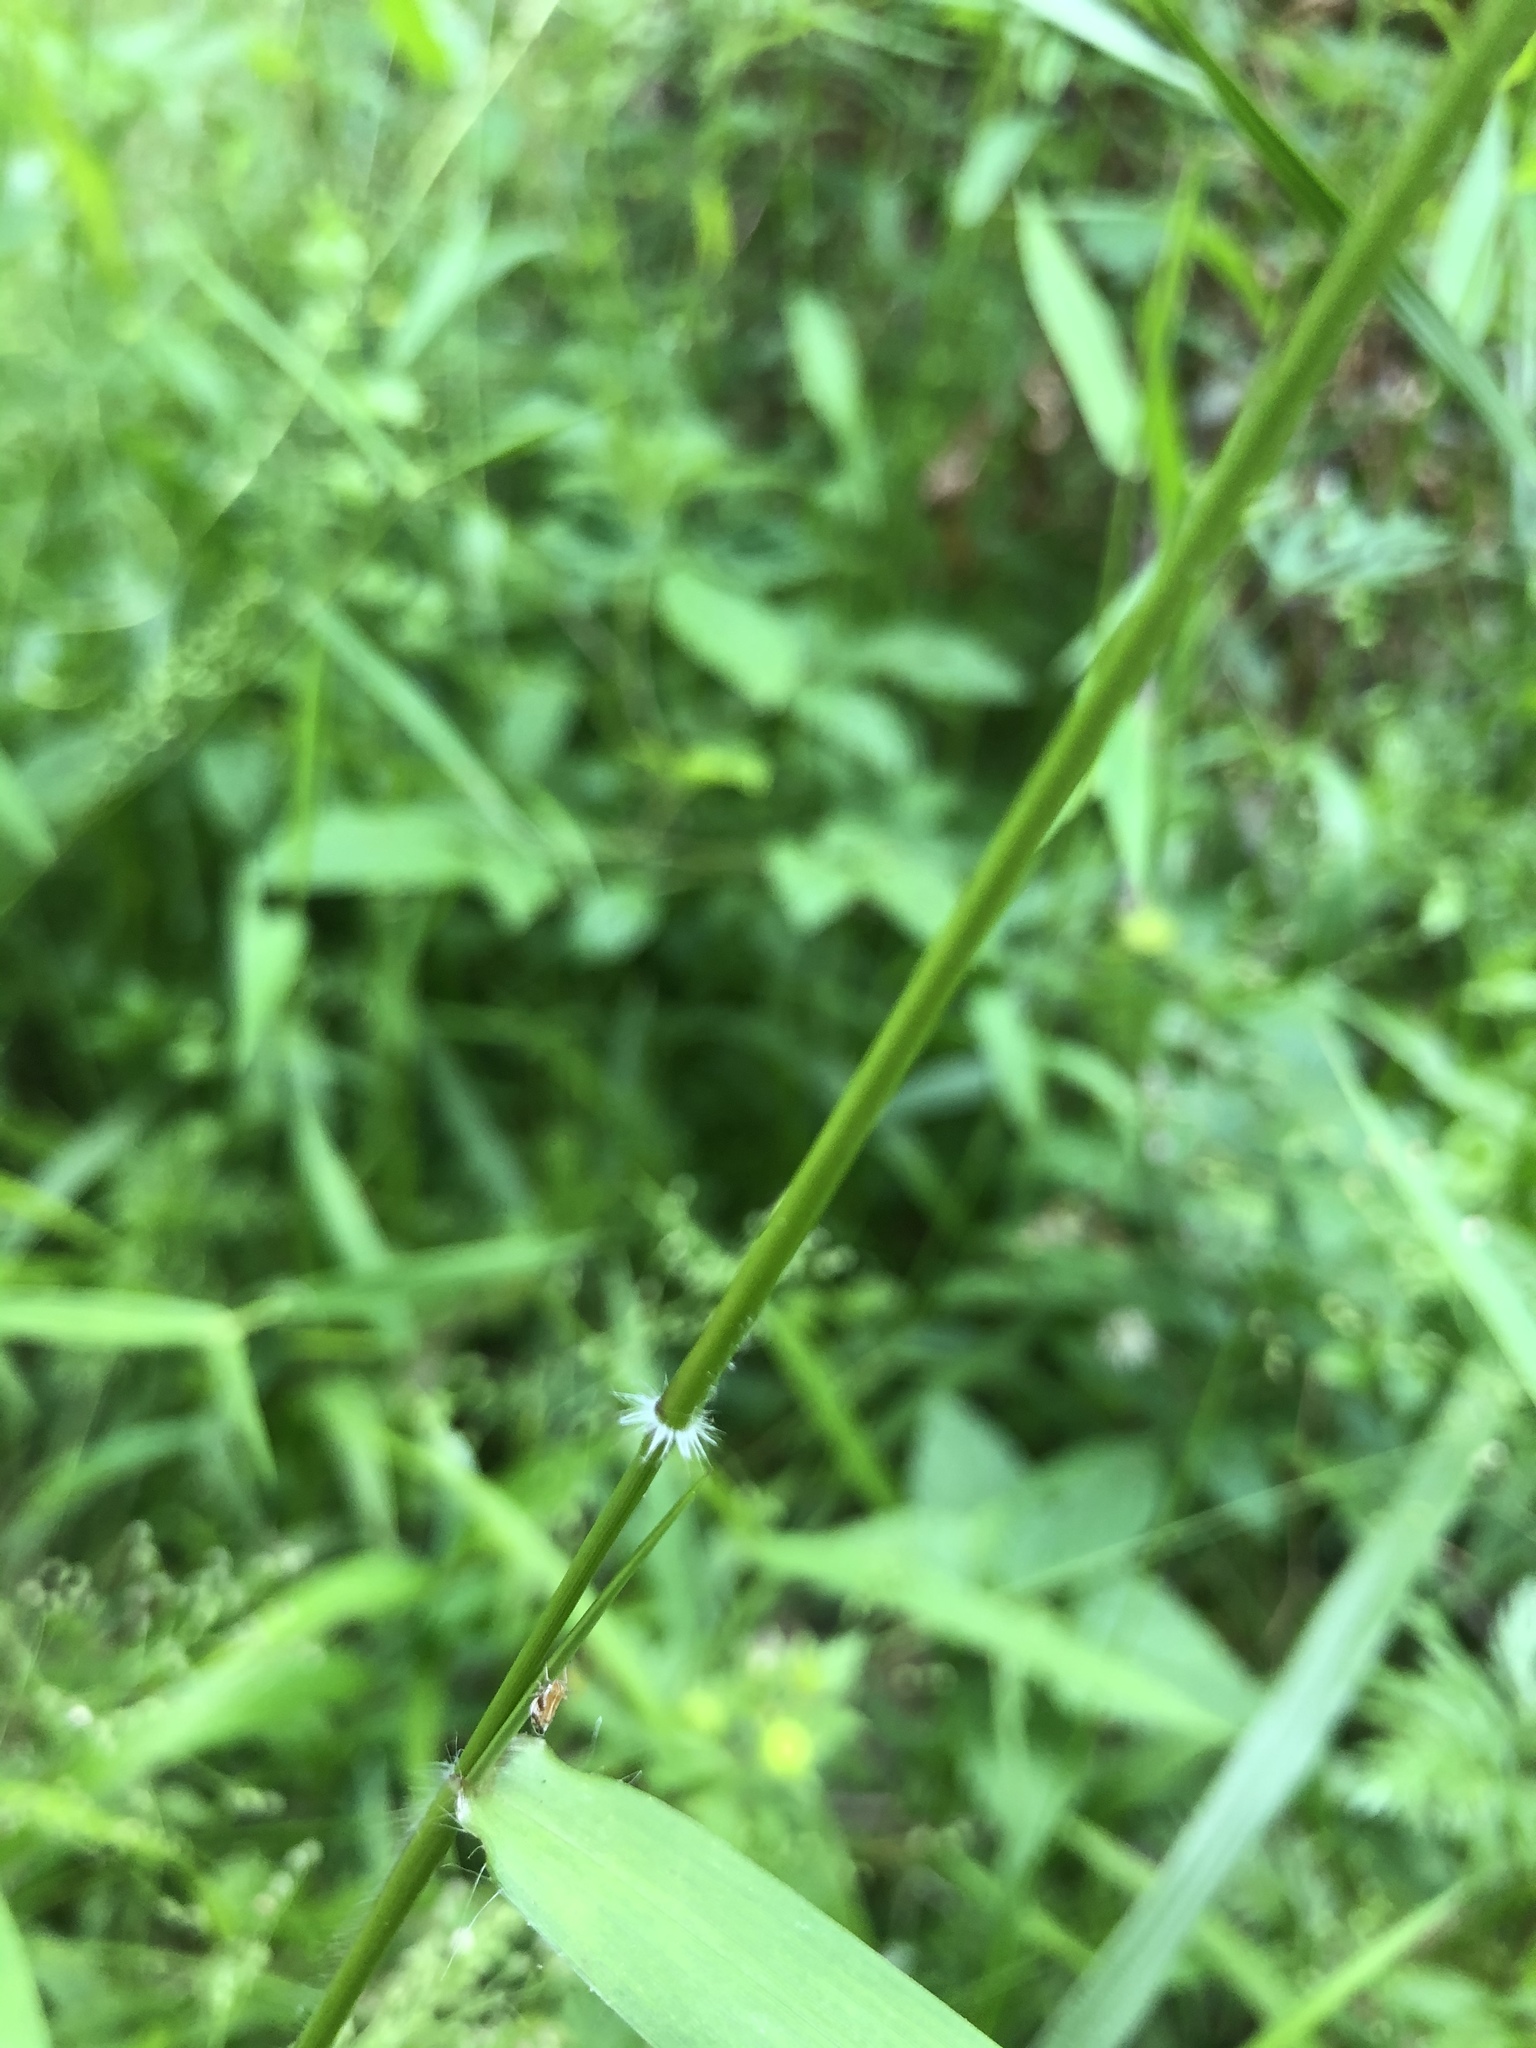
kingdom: Plantae
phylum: Tracheophyta
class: Liliopsida
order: Poales
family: Poaceae
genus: Dichanthelium
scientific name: Dichanthelium microcarpon
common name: Small-fruited witchgrass
